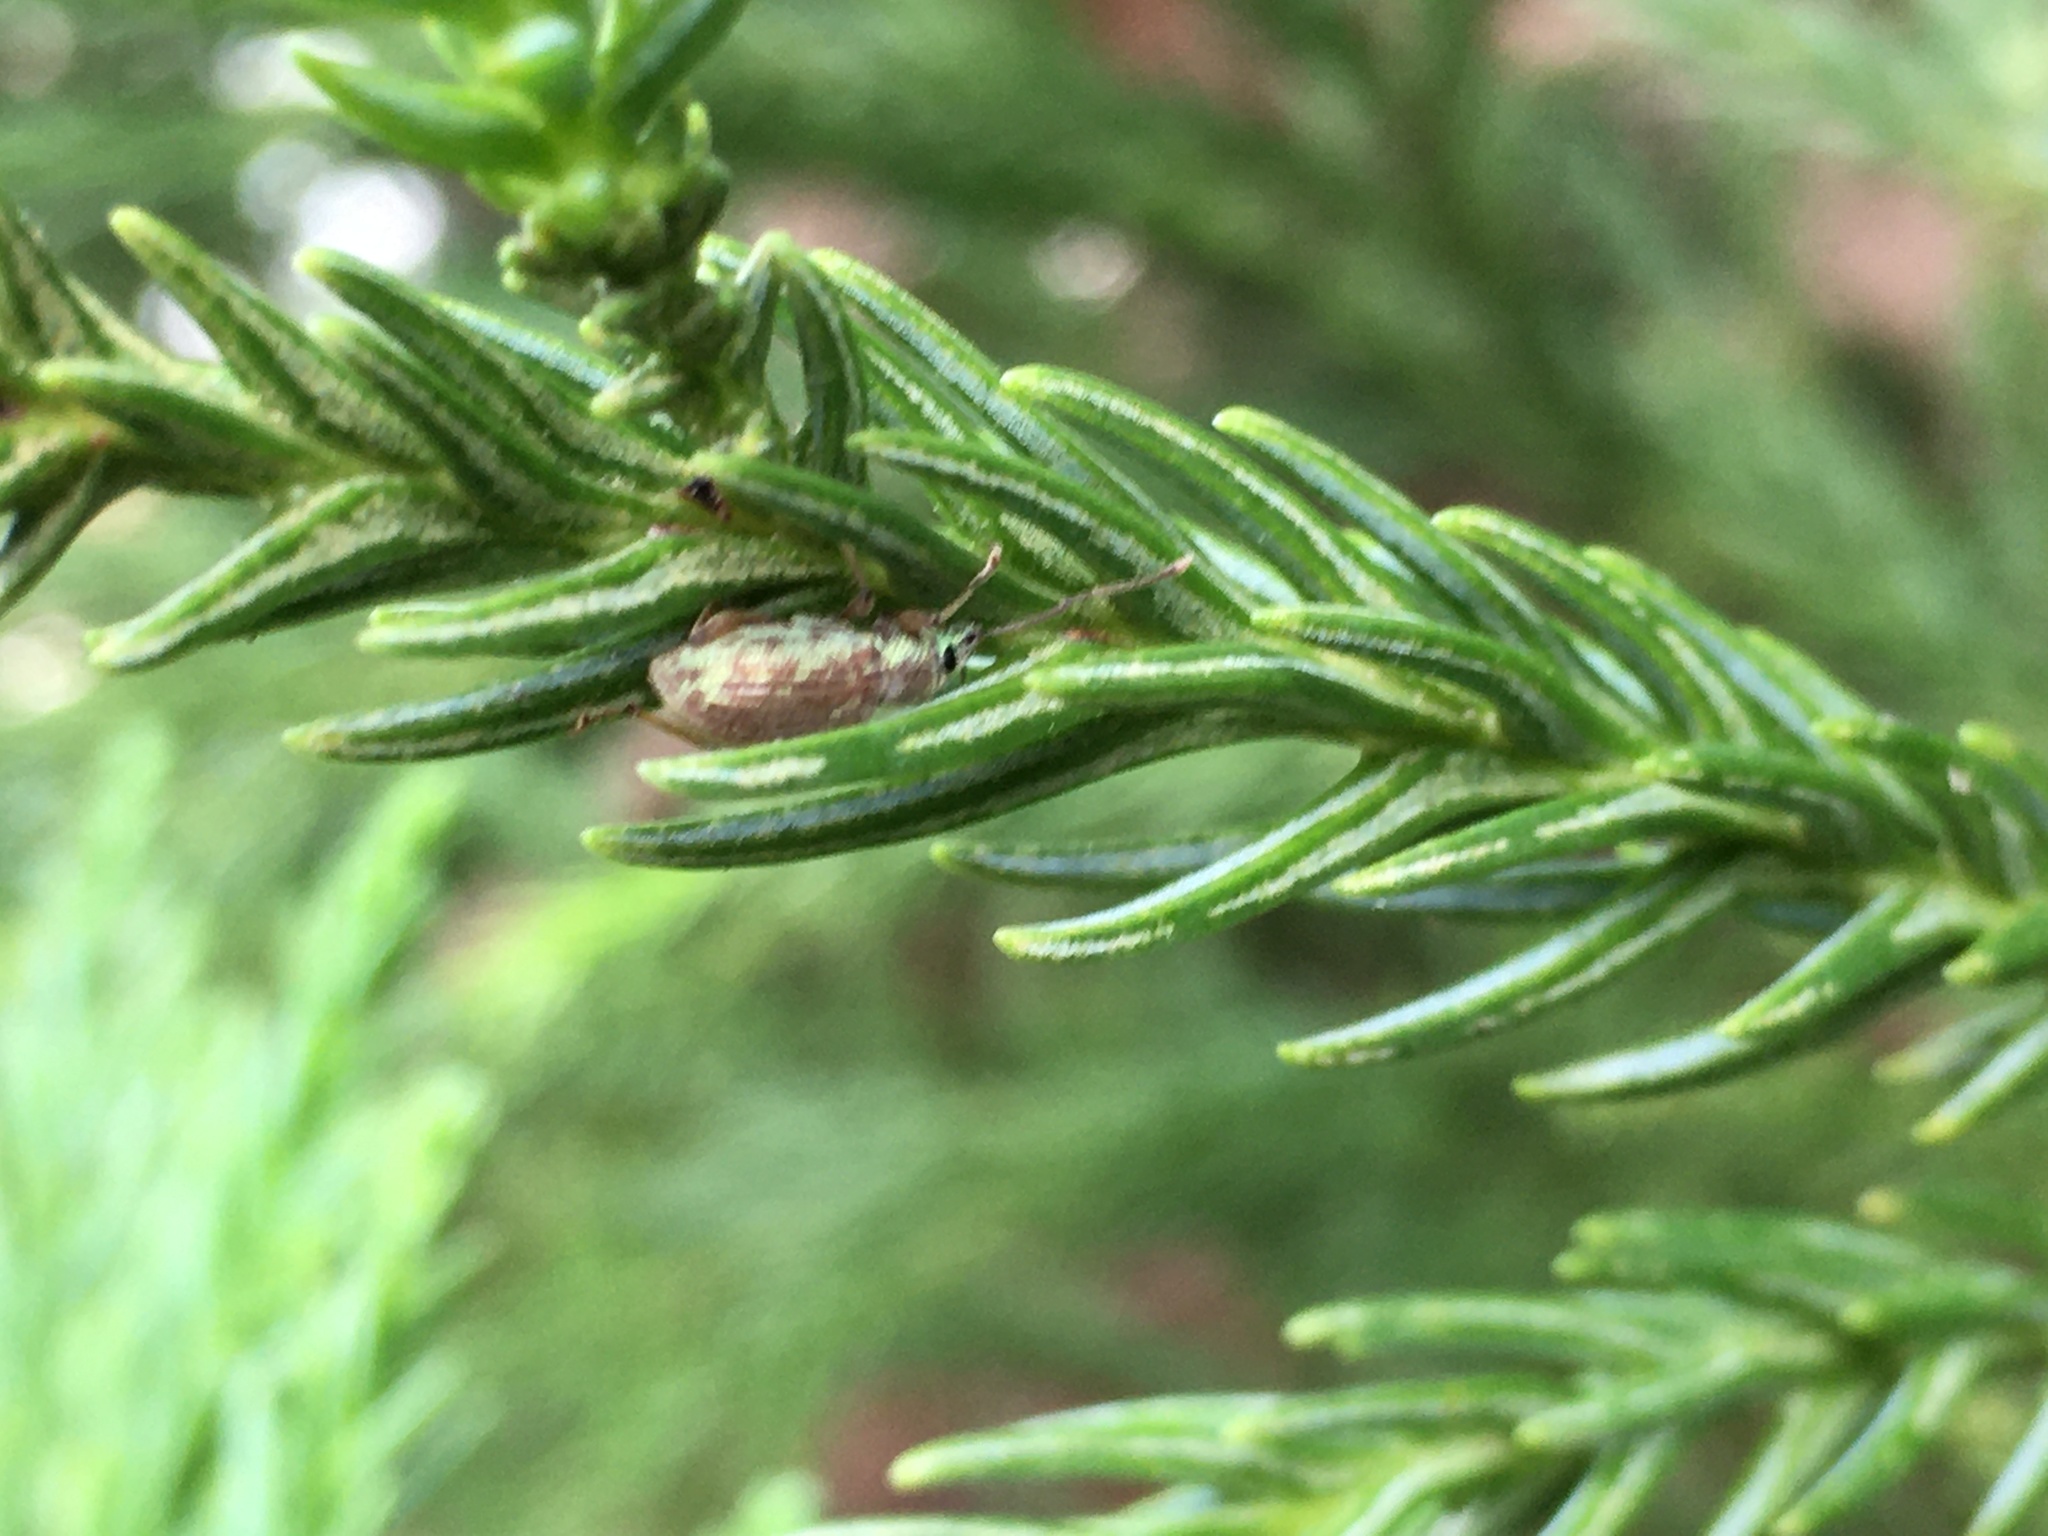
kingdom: Animalia
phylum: Arthropoda
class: Insecta
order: Coleoptera
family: Curculionidae
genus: Cyrtepistomus
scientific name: Cyrtepistomus castaneus
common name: Weevil
